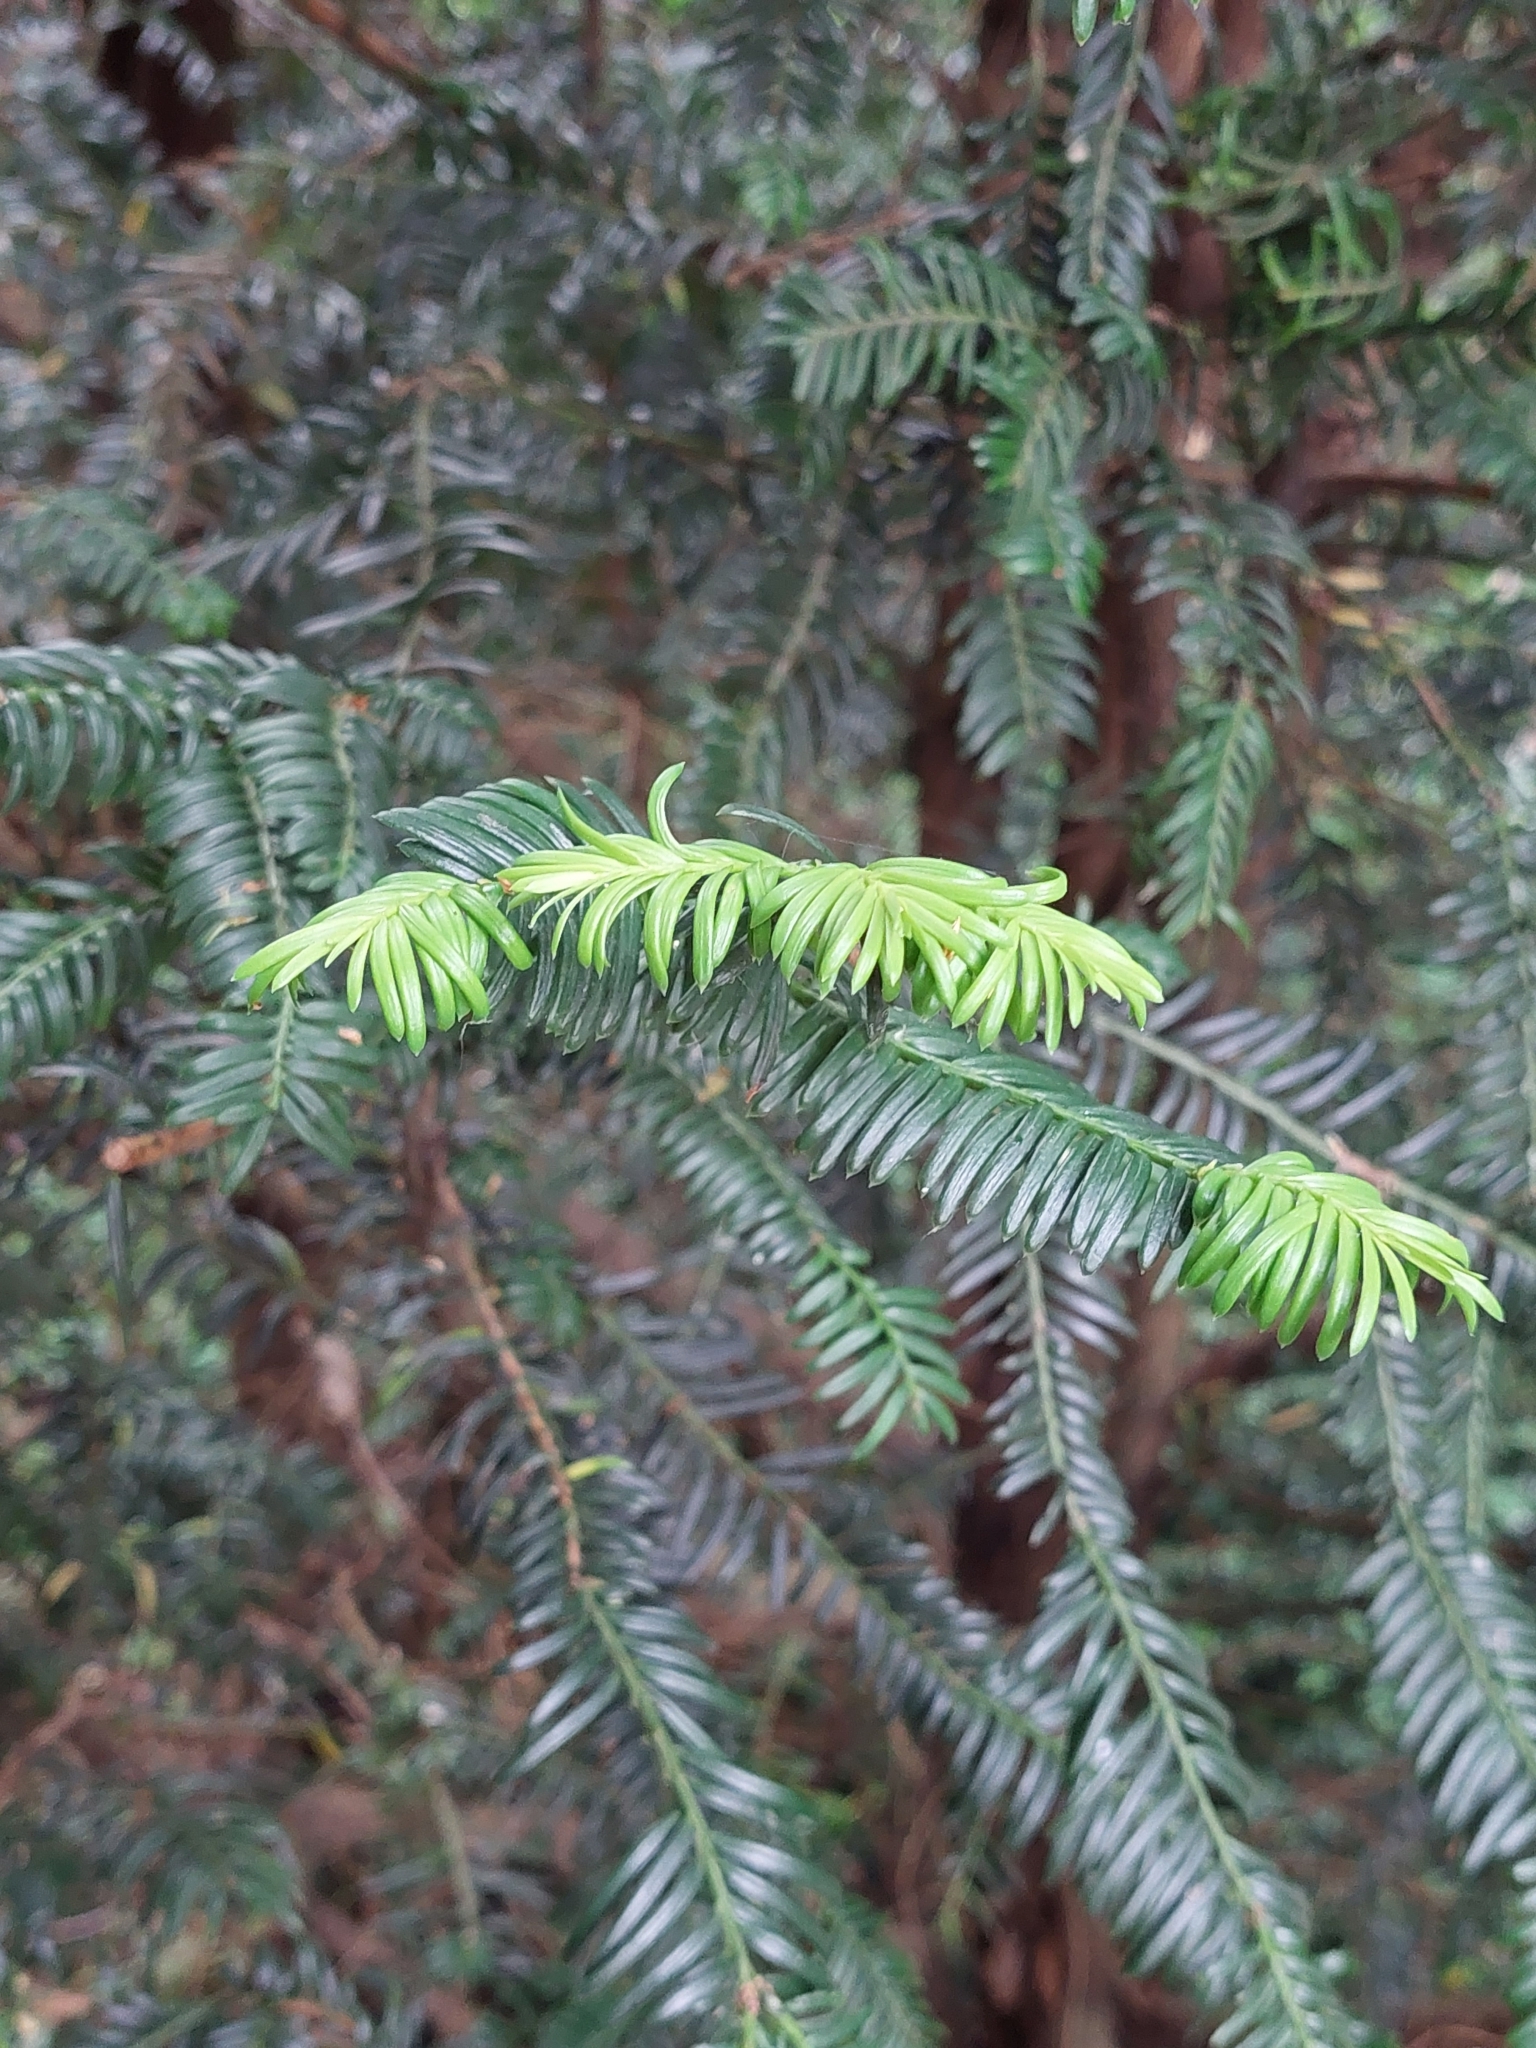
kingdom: Plantae
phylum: Tracheophyta
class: Pinopsida
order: Pinales
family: Taxaceae
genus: Taxus
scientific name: Taxus baccata
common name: Yew
